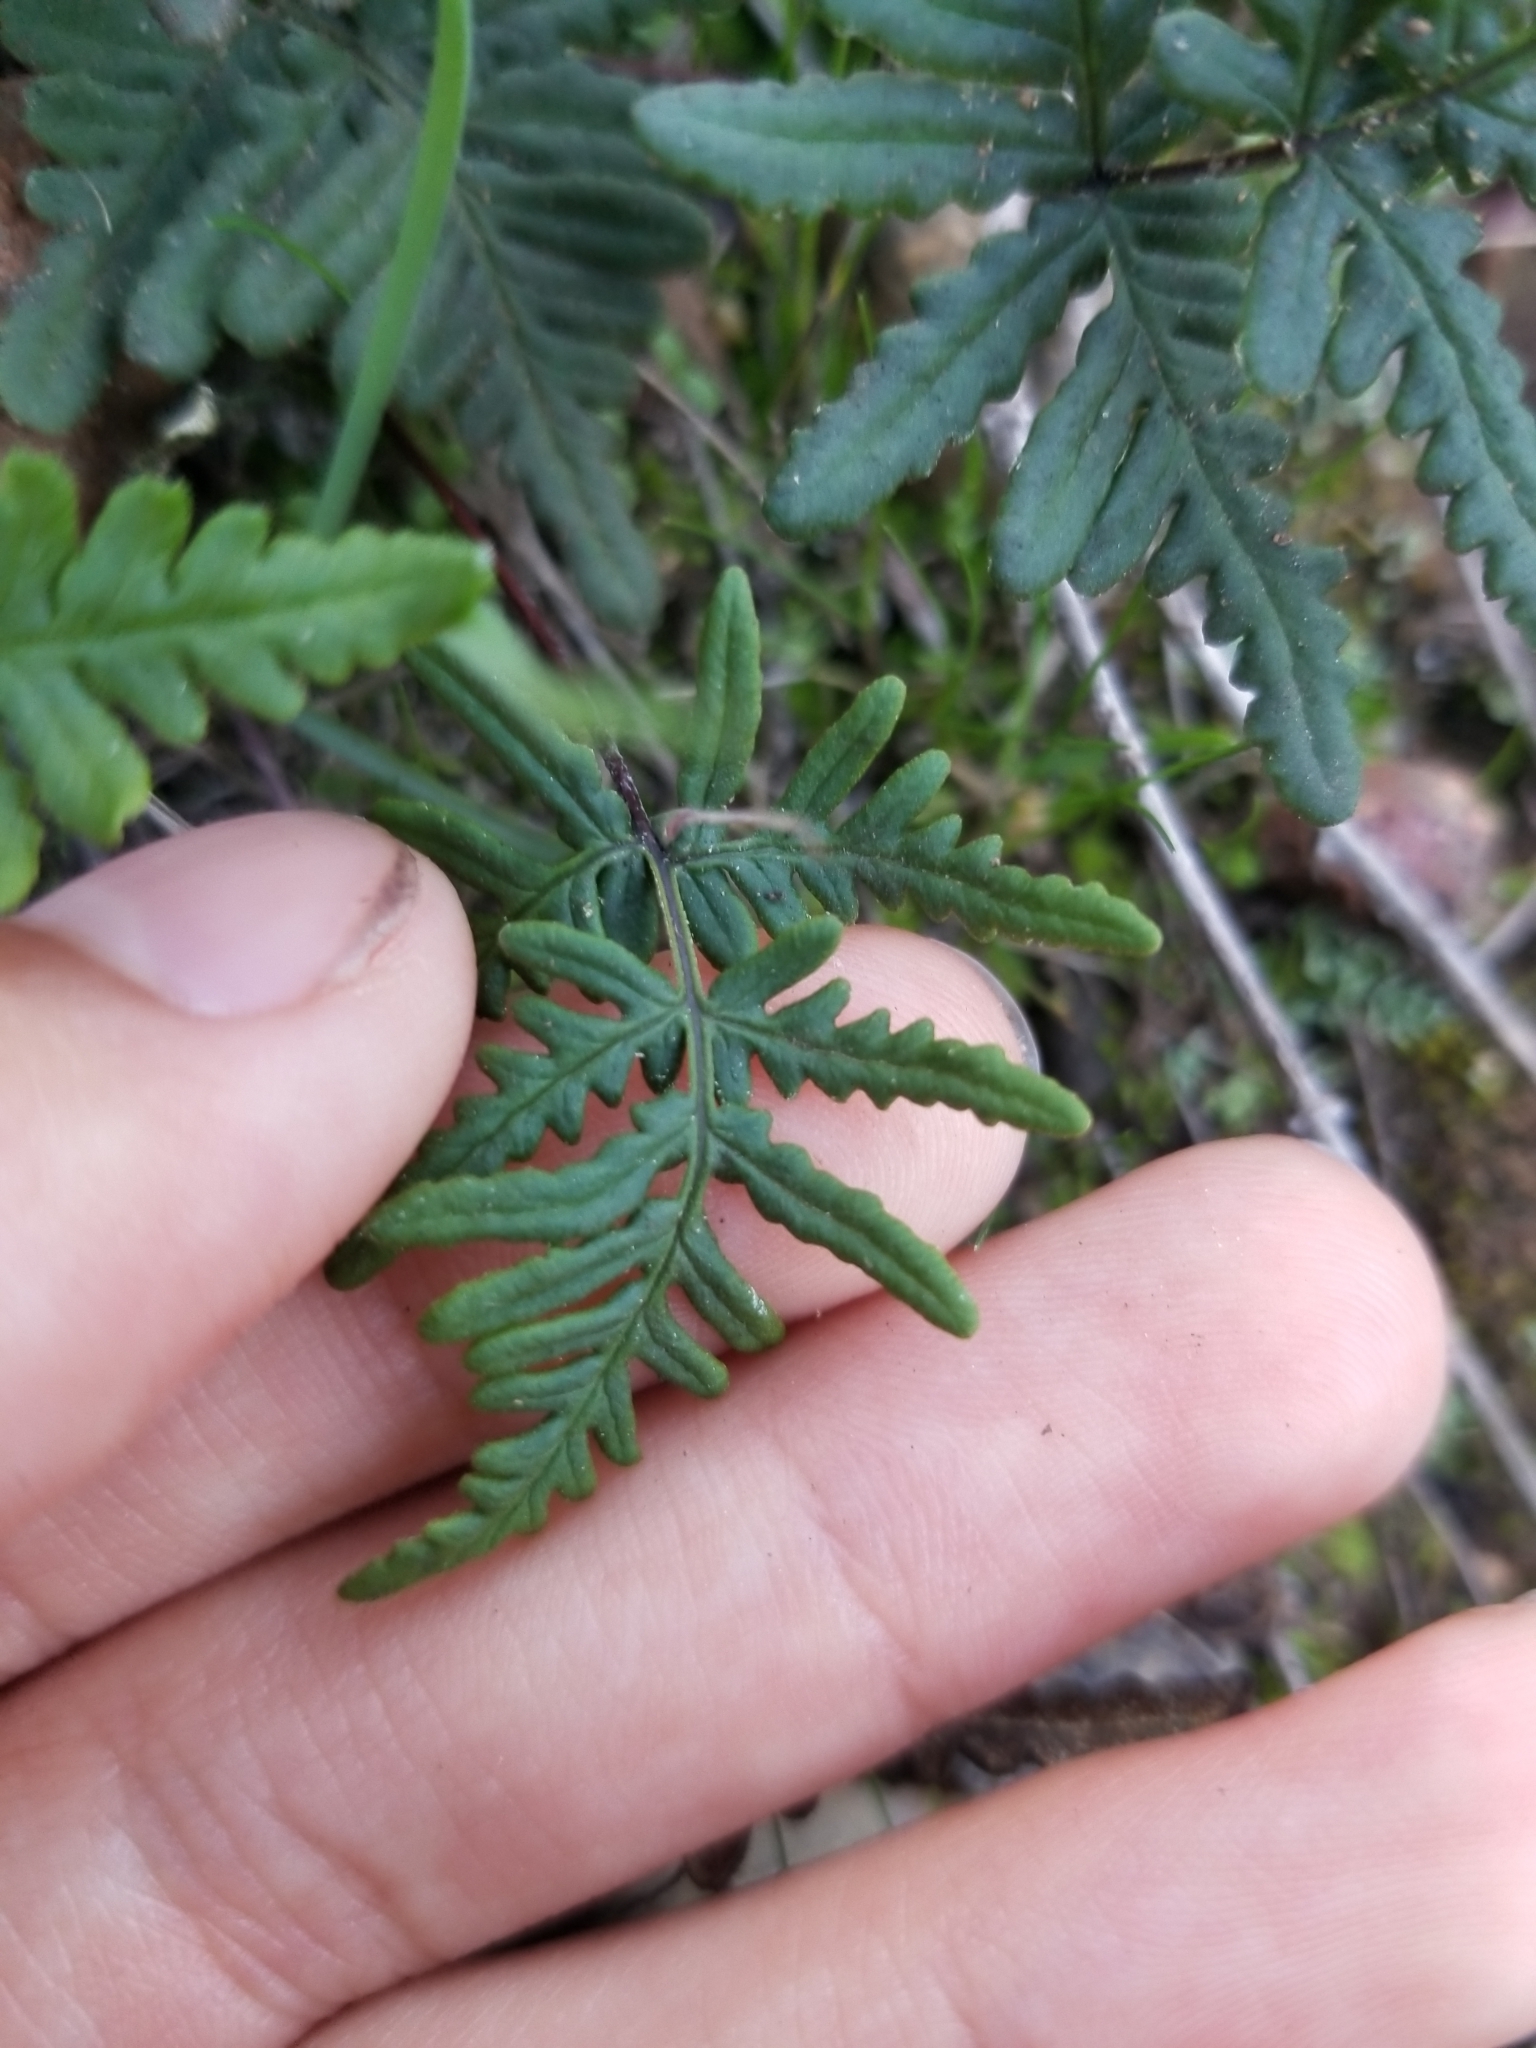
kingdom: Plantae
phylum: Tracheophyta
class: Polypodiopsida
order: Polypodiales
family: Pteridaceae
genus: Pentagramma
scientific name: Pentagramma viscosa
